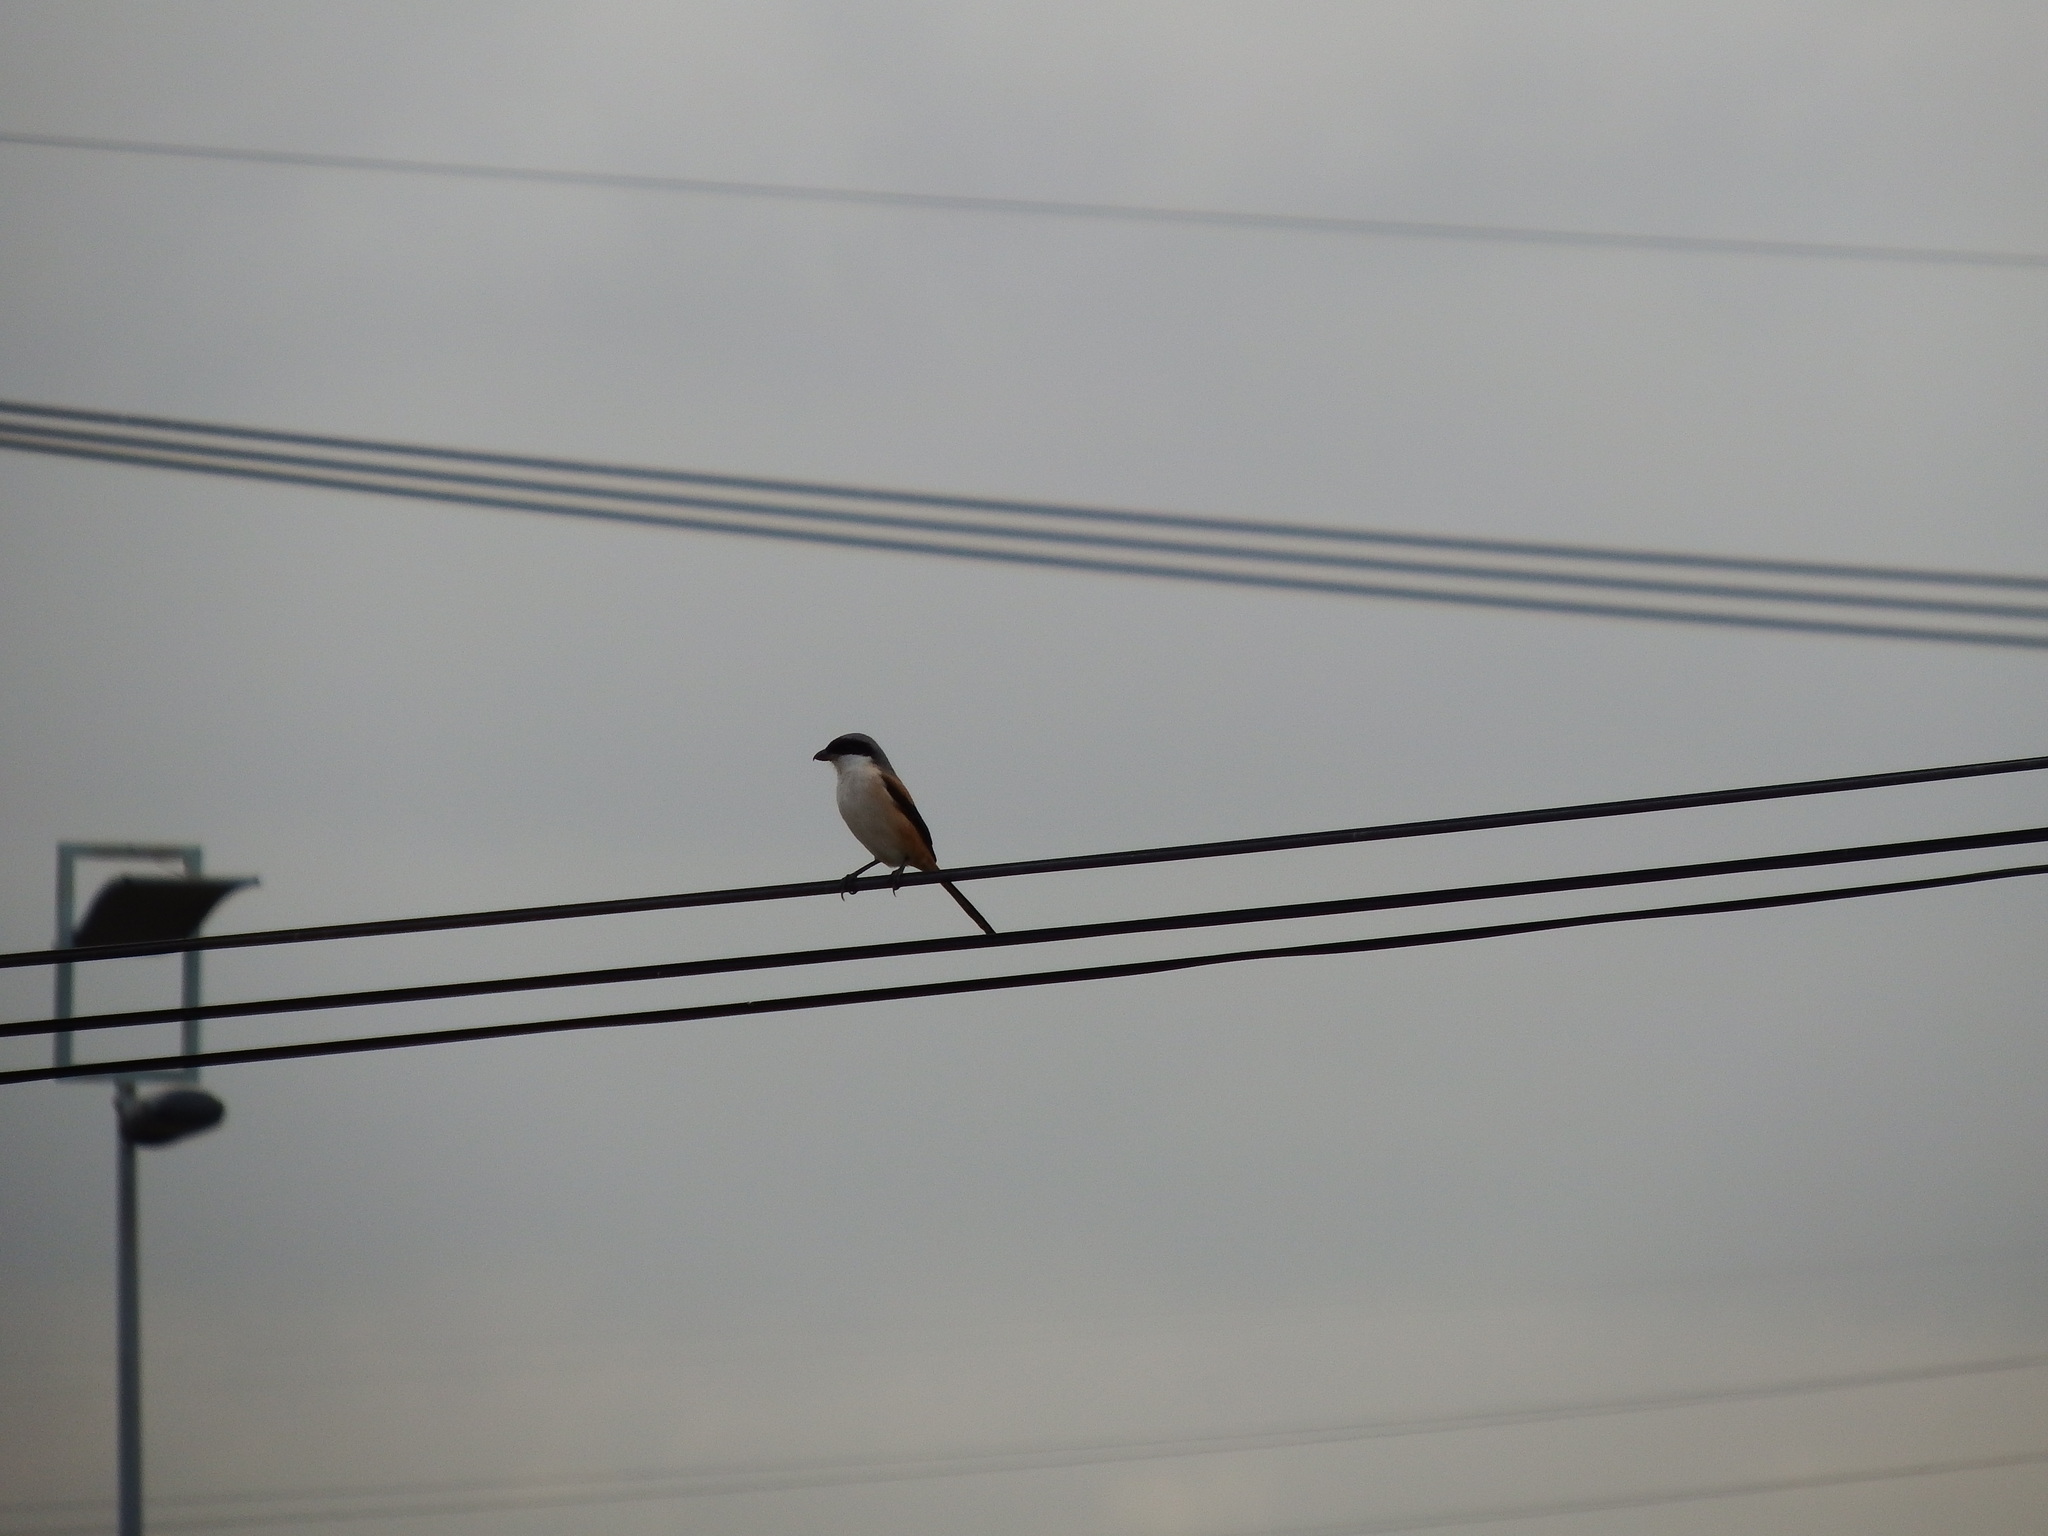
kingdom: Animalia
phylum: Chordata
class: Aves
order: Passeriformes
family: Laniidae
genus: Lanius
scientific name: Lanius schach
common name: Long-tailed shrike
